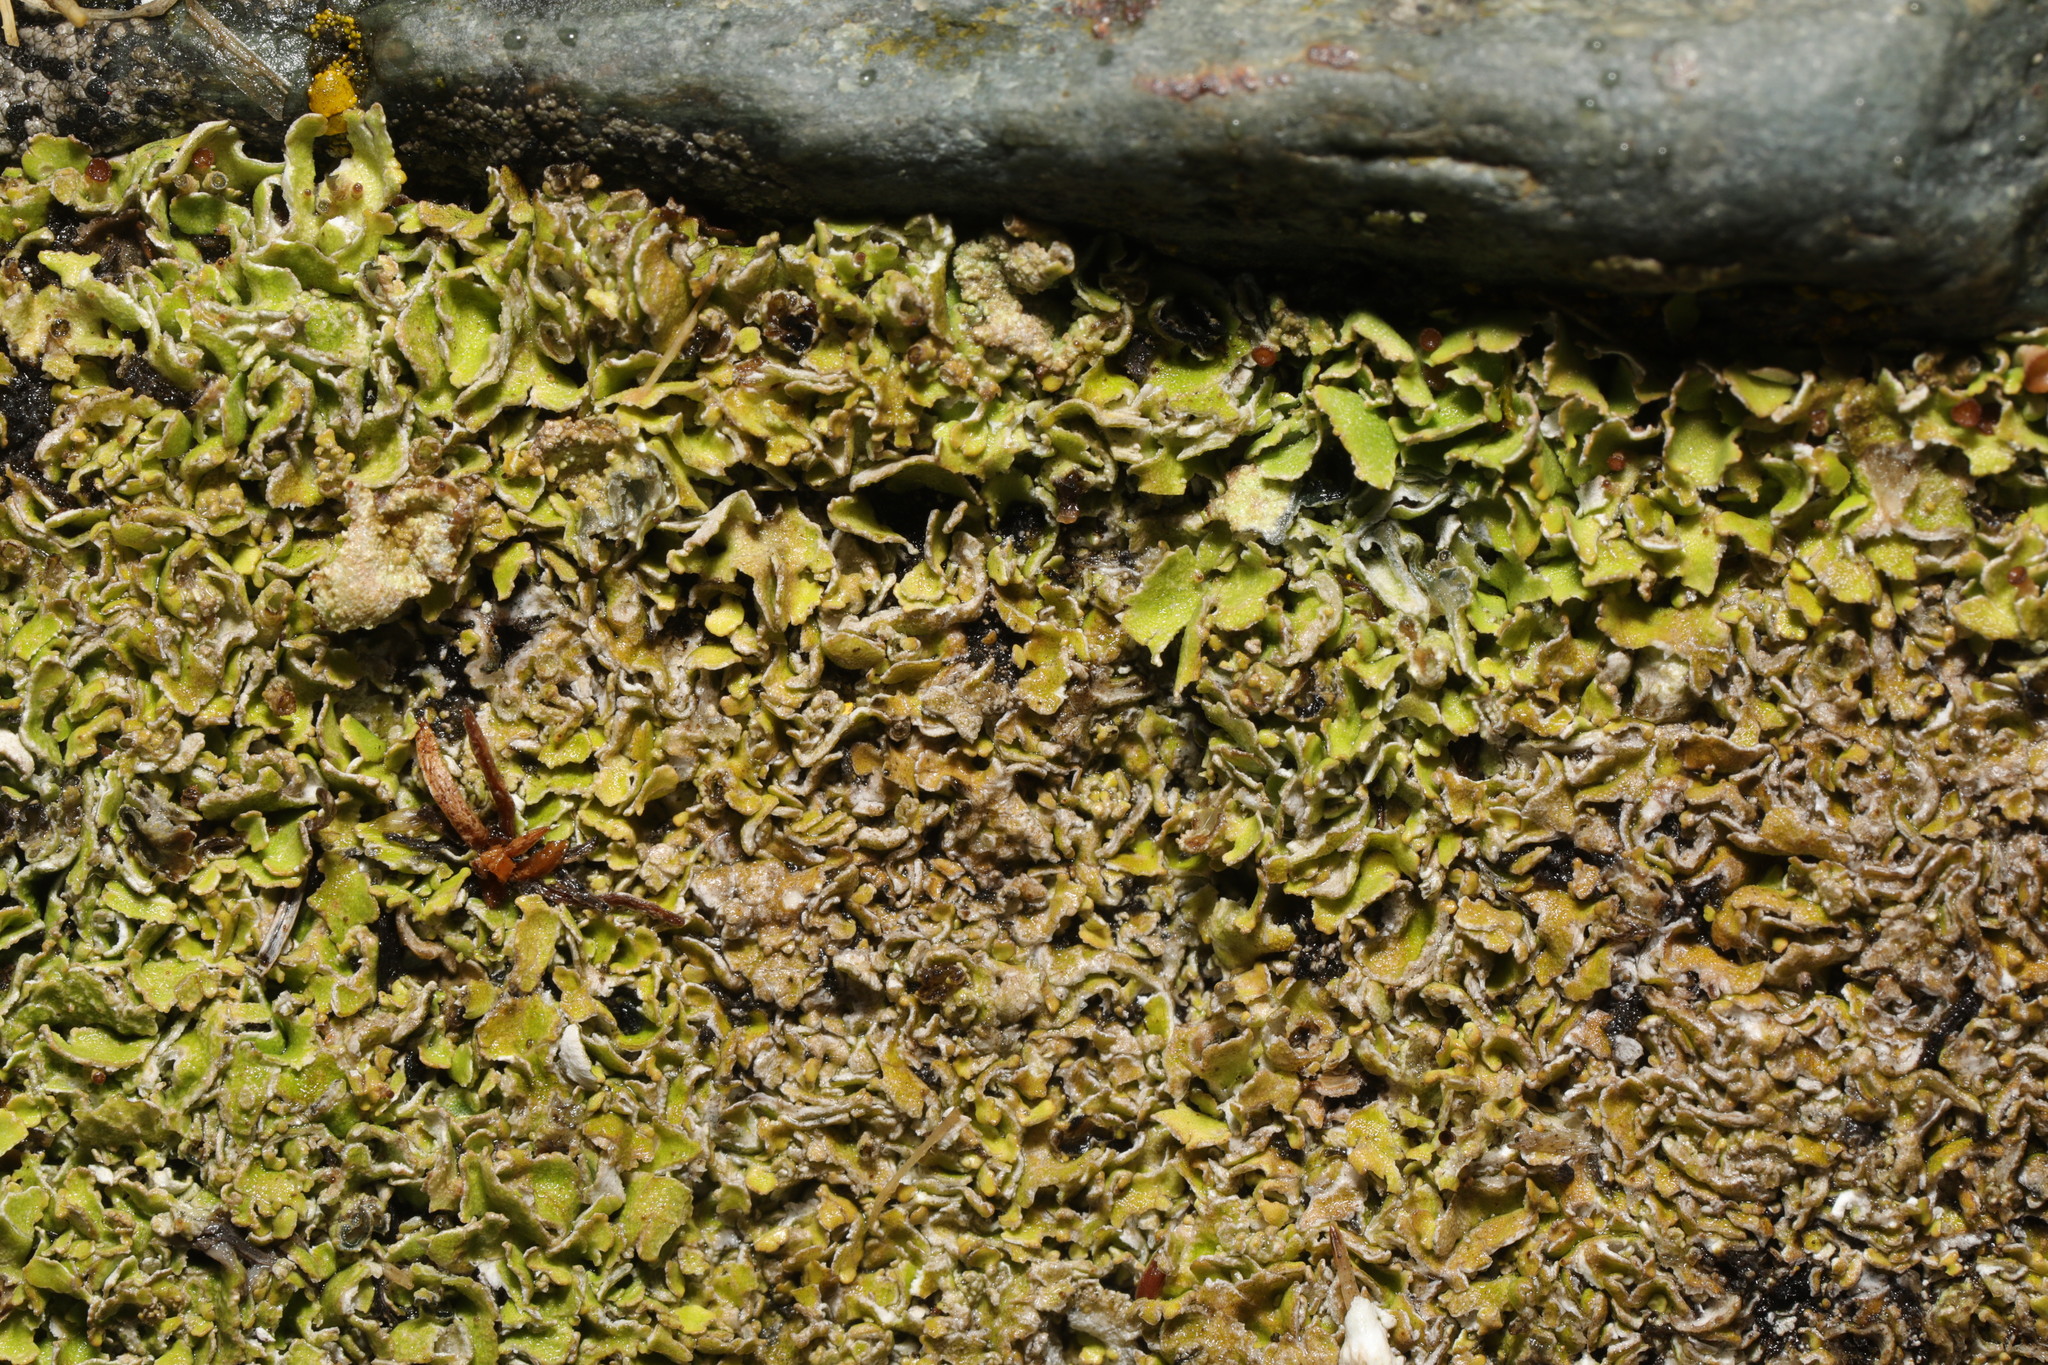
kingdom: Fungi
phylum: Ascomycota
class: Lecanoromycetes
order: Lecanorales
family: Cladoniaceae
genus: Cladonia
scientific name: Cladonia
